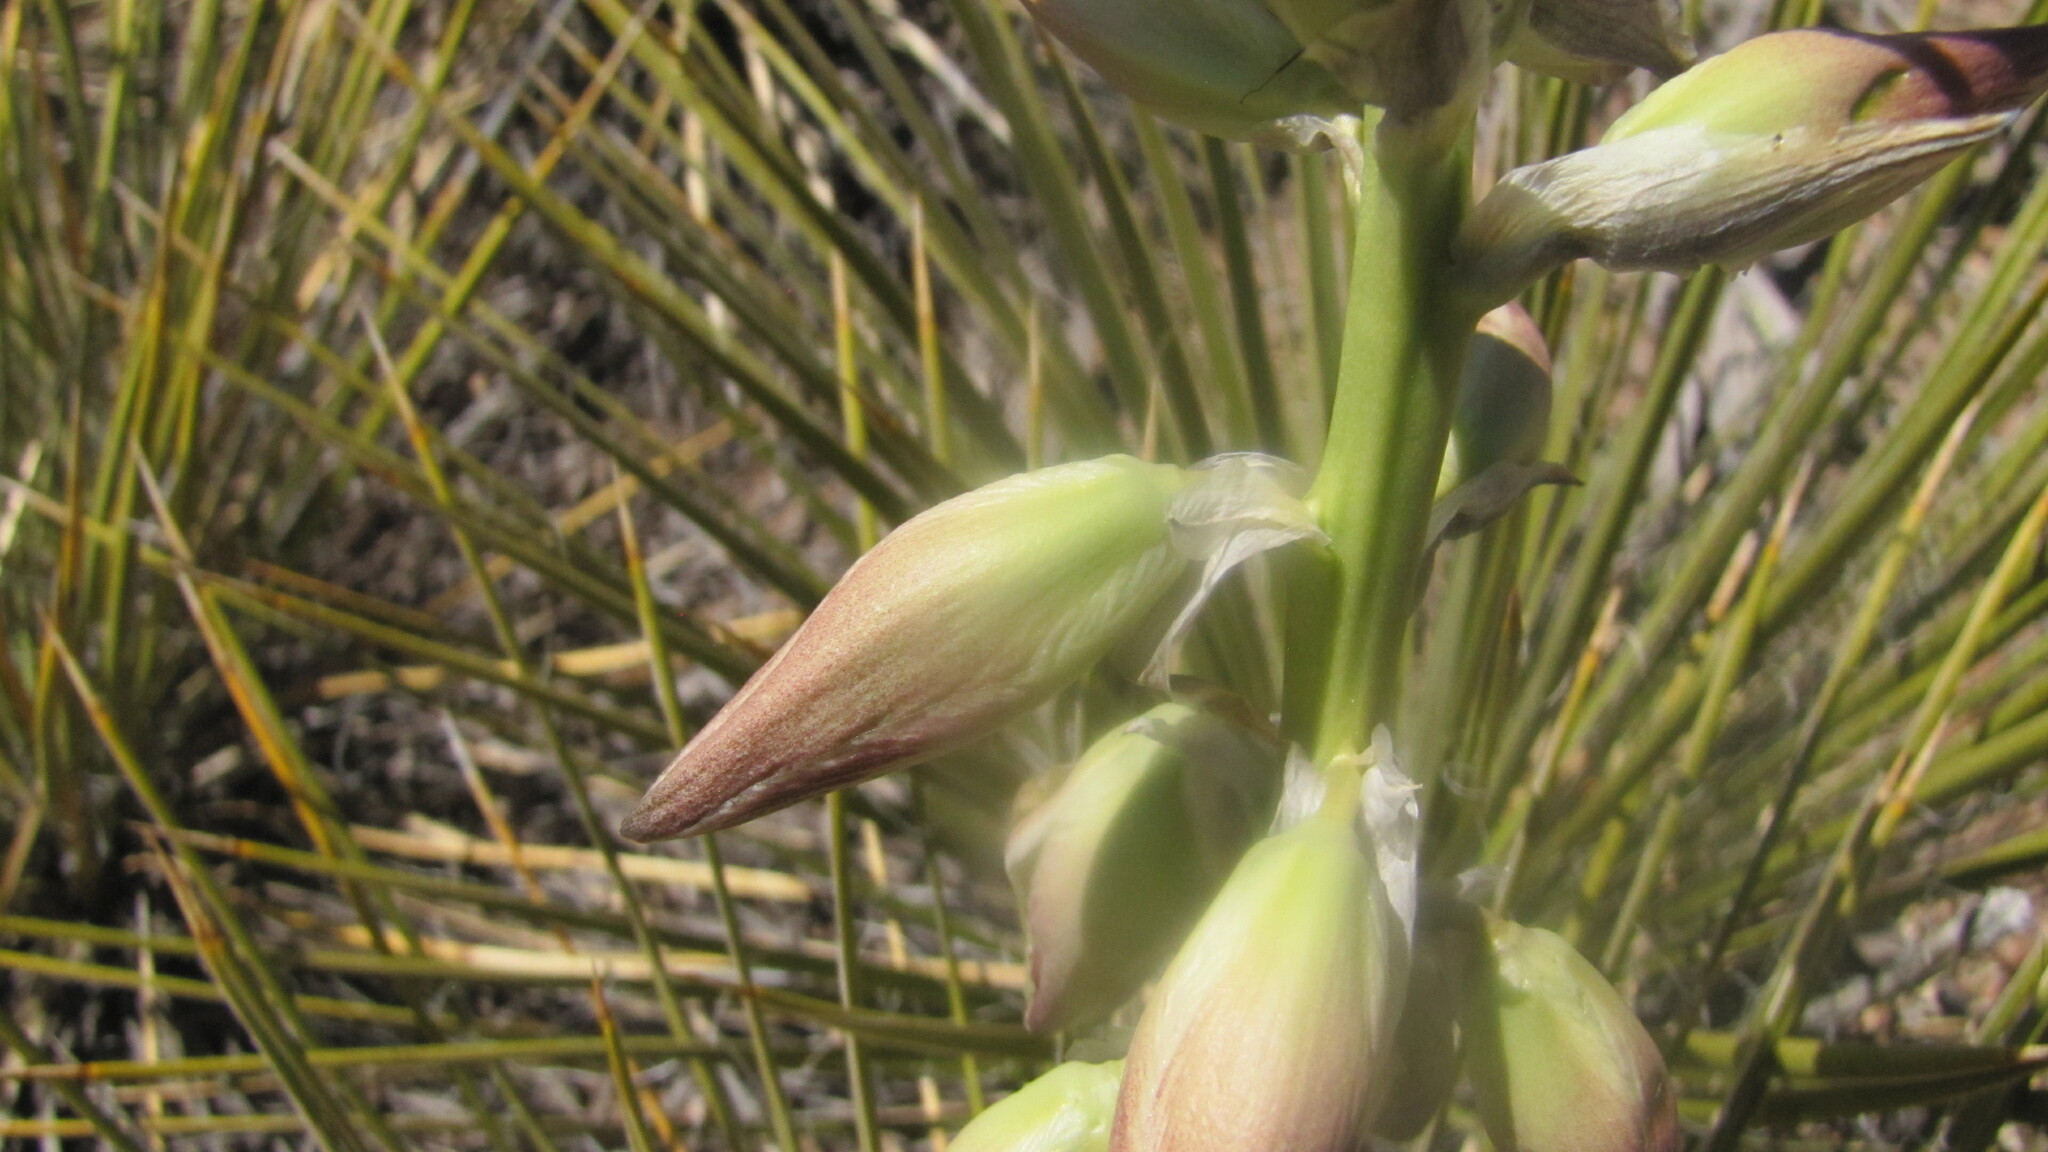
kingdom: Plantae
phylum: Tracheophyta
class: Liliopsida
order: Asparagales
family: Asparagaceae
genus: Yucca
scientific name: Yucca glauca
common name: Great plains yucca
